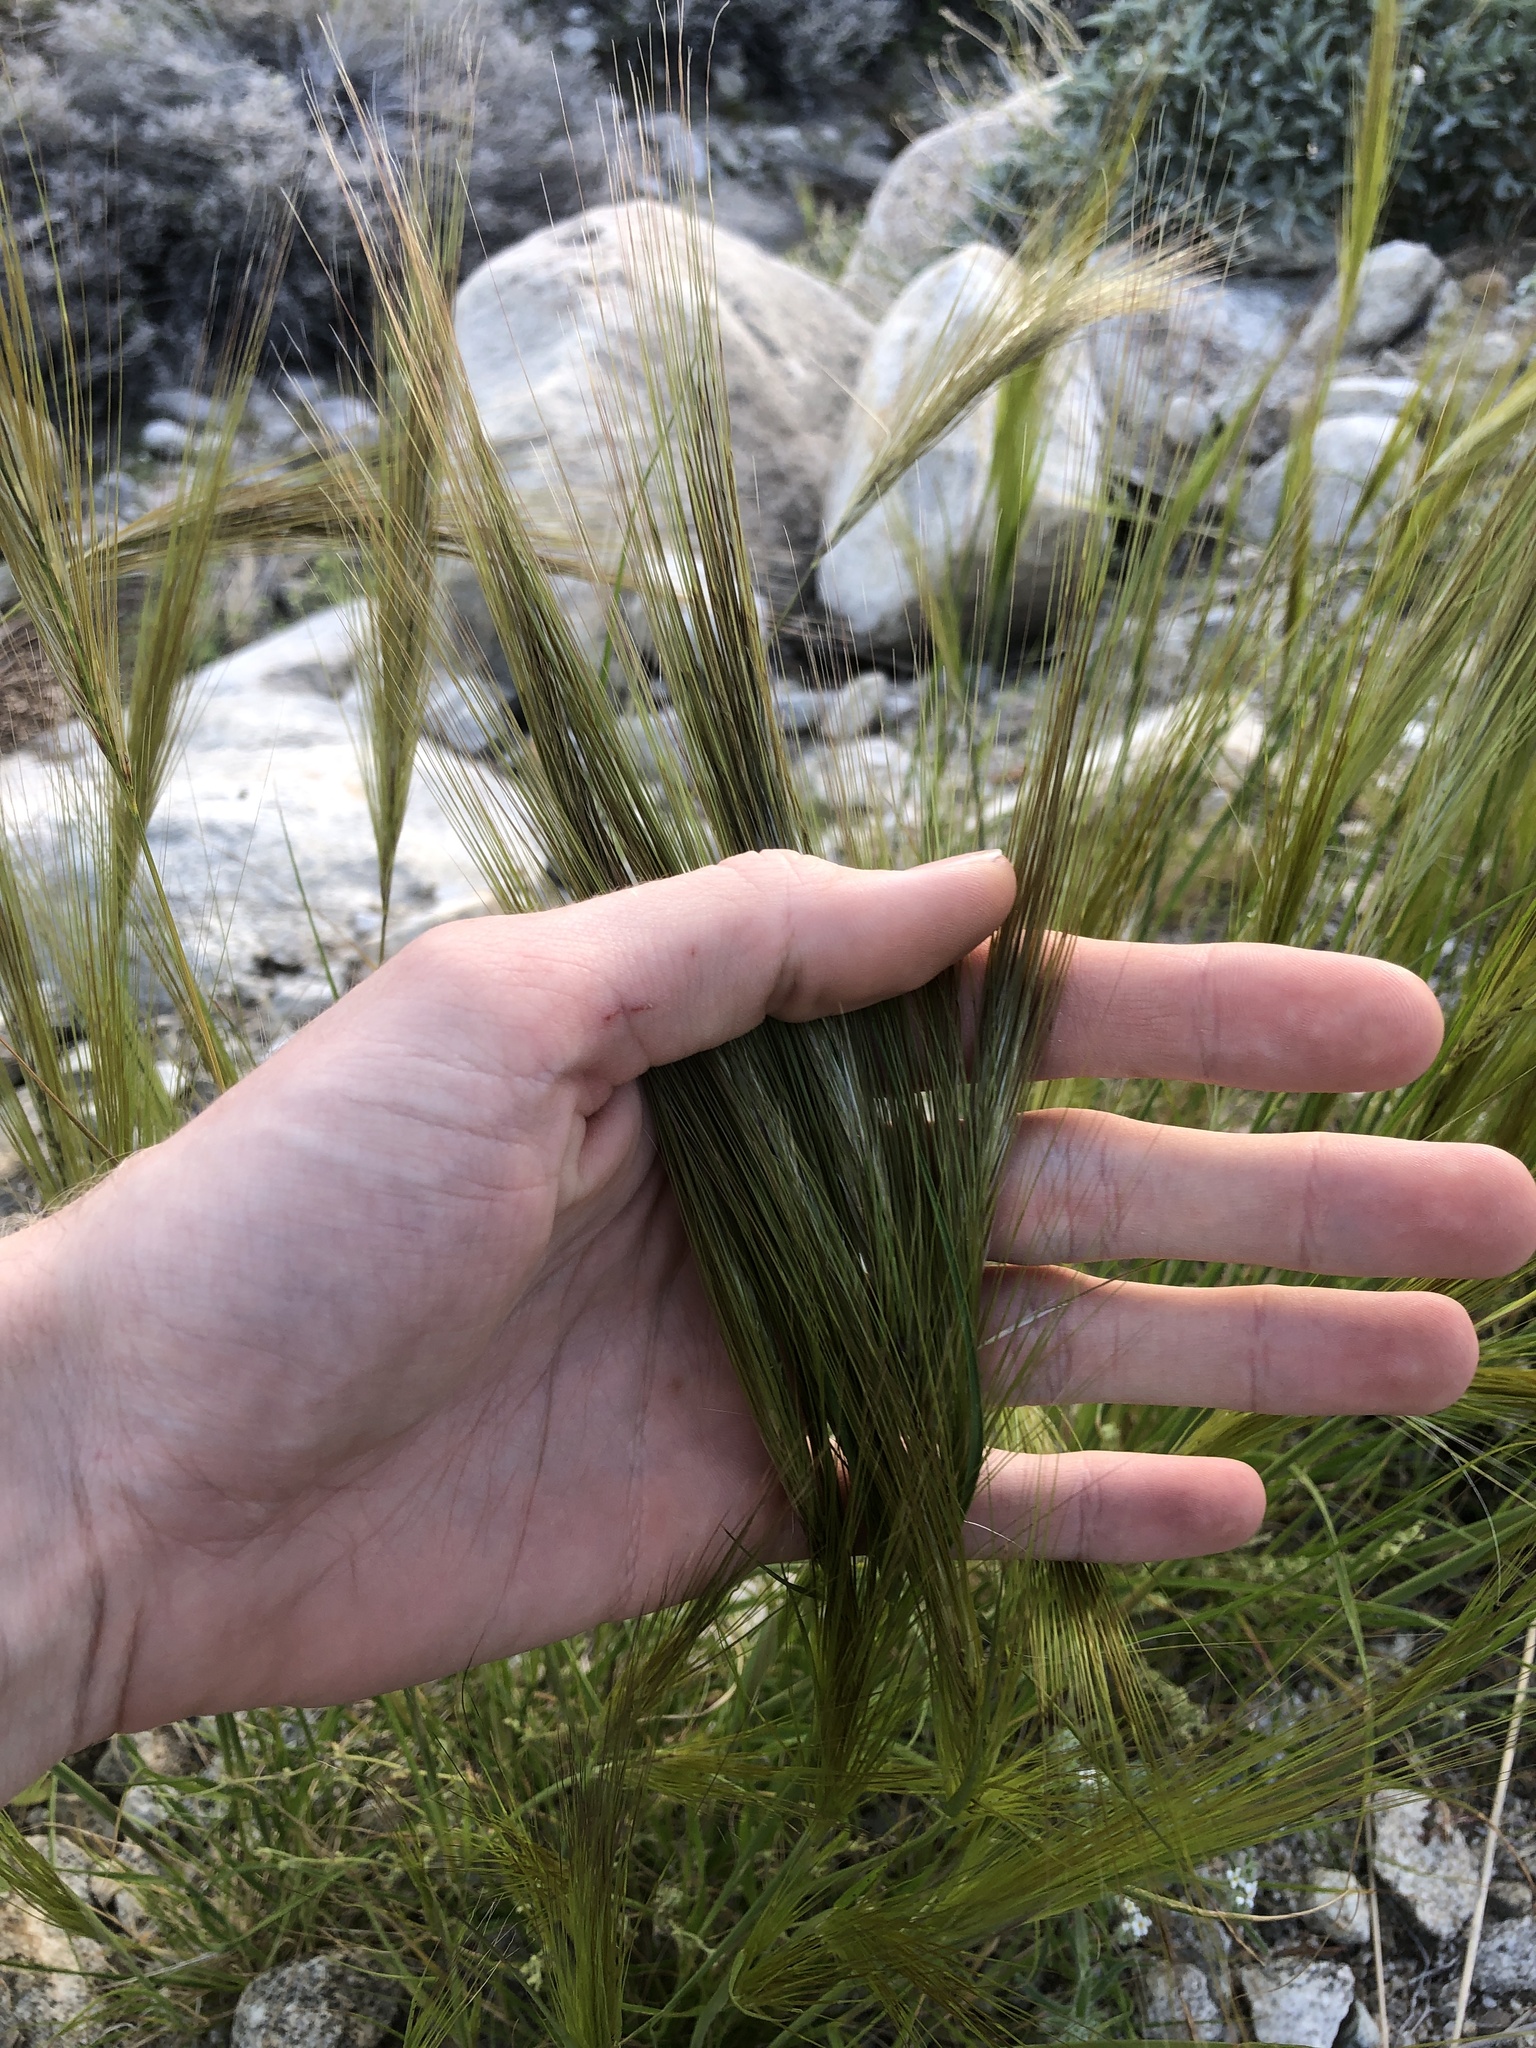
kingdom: Plantae
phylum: Tracheophyta
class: Liliopsida
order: Poales
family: Poaceae
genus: Stipellula
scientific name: Stipellula capensis
